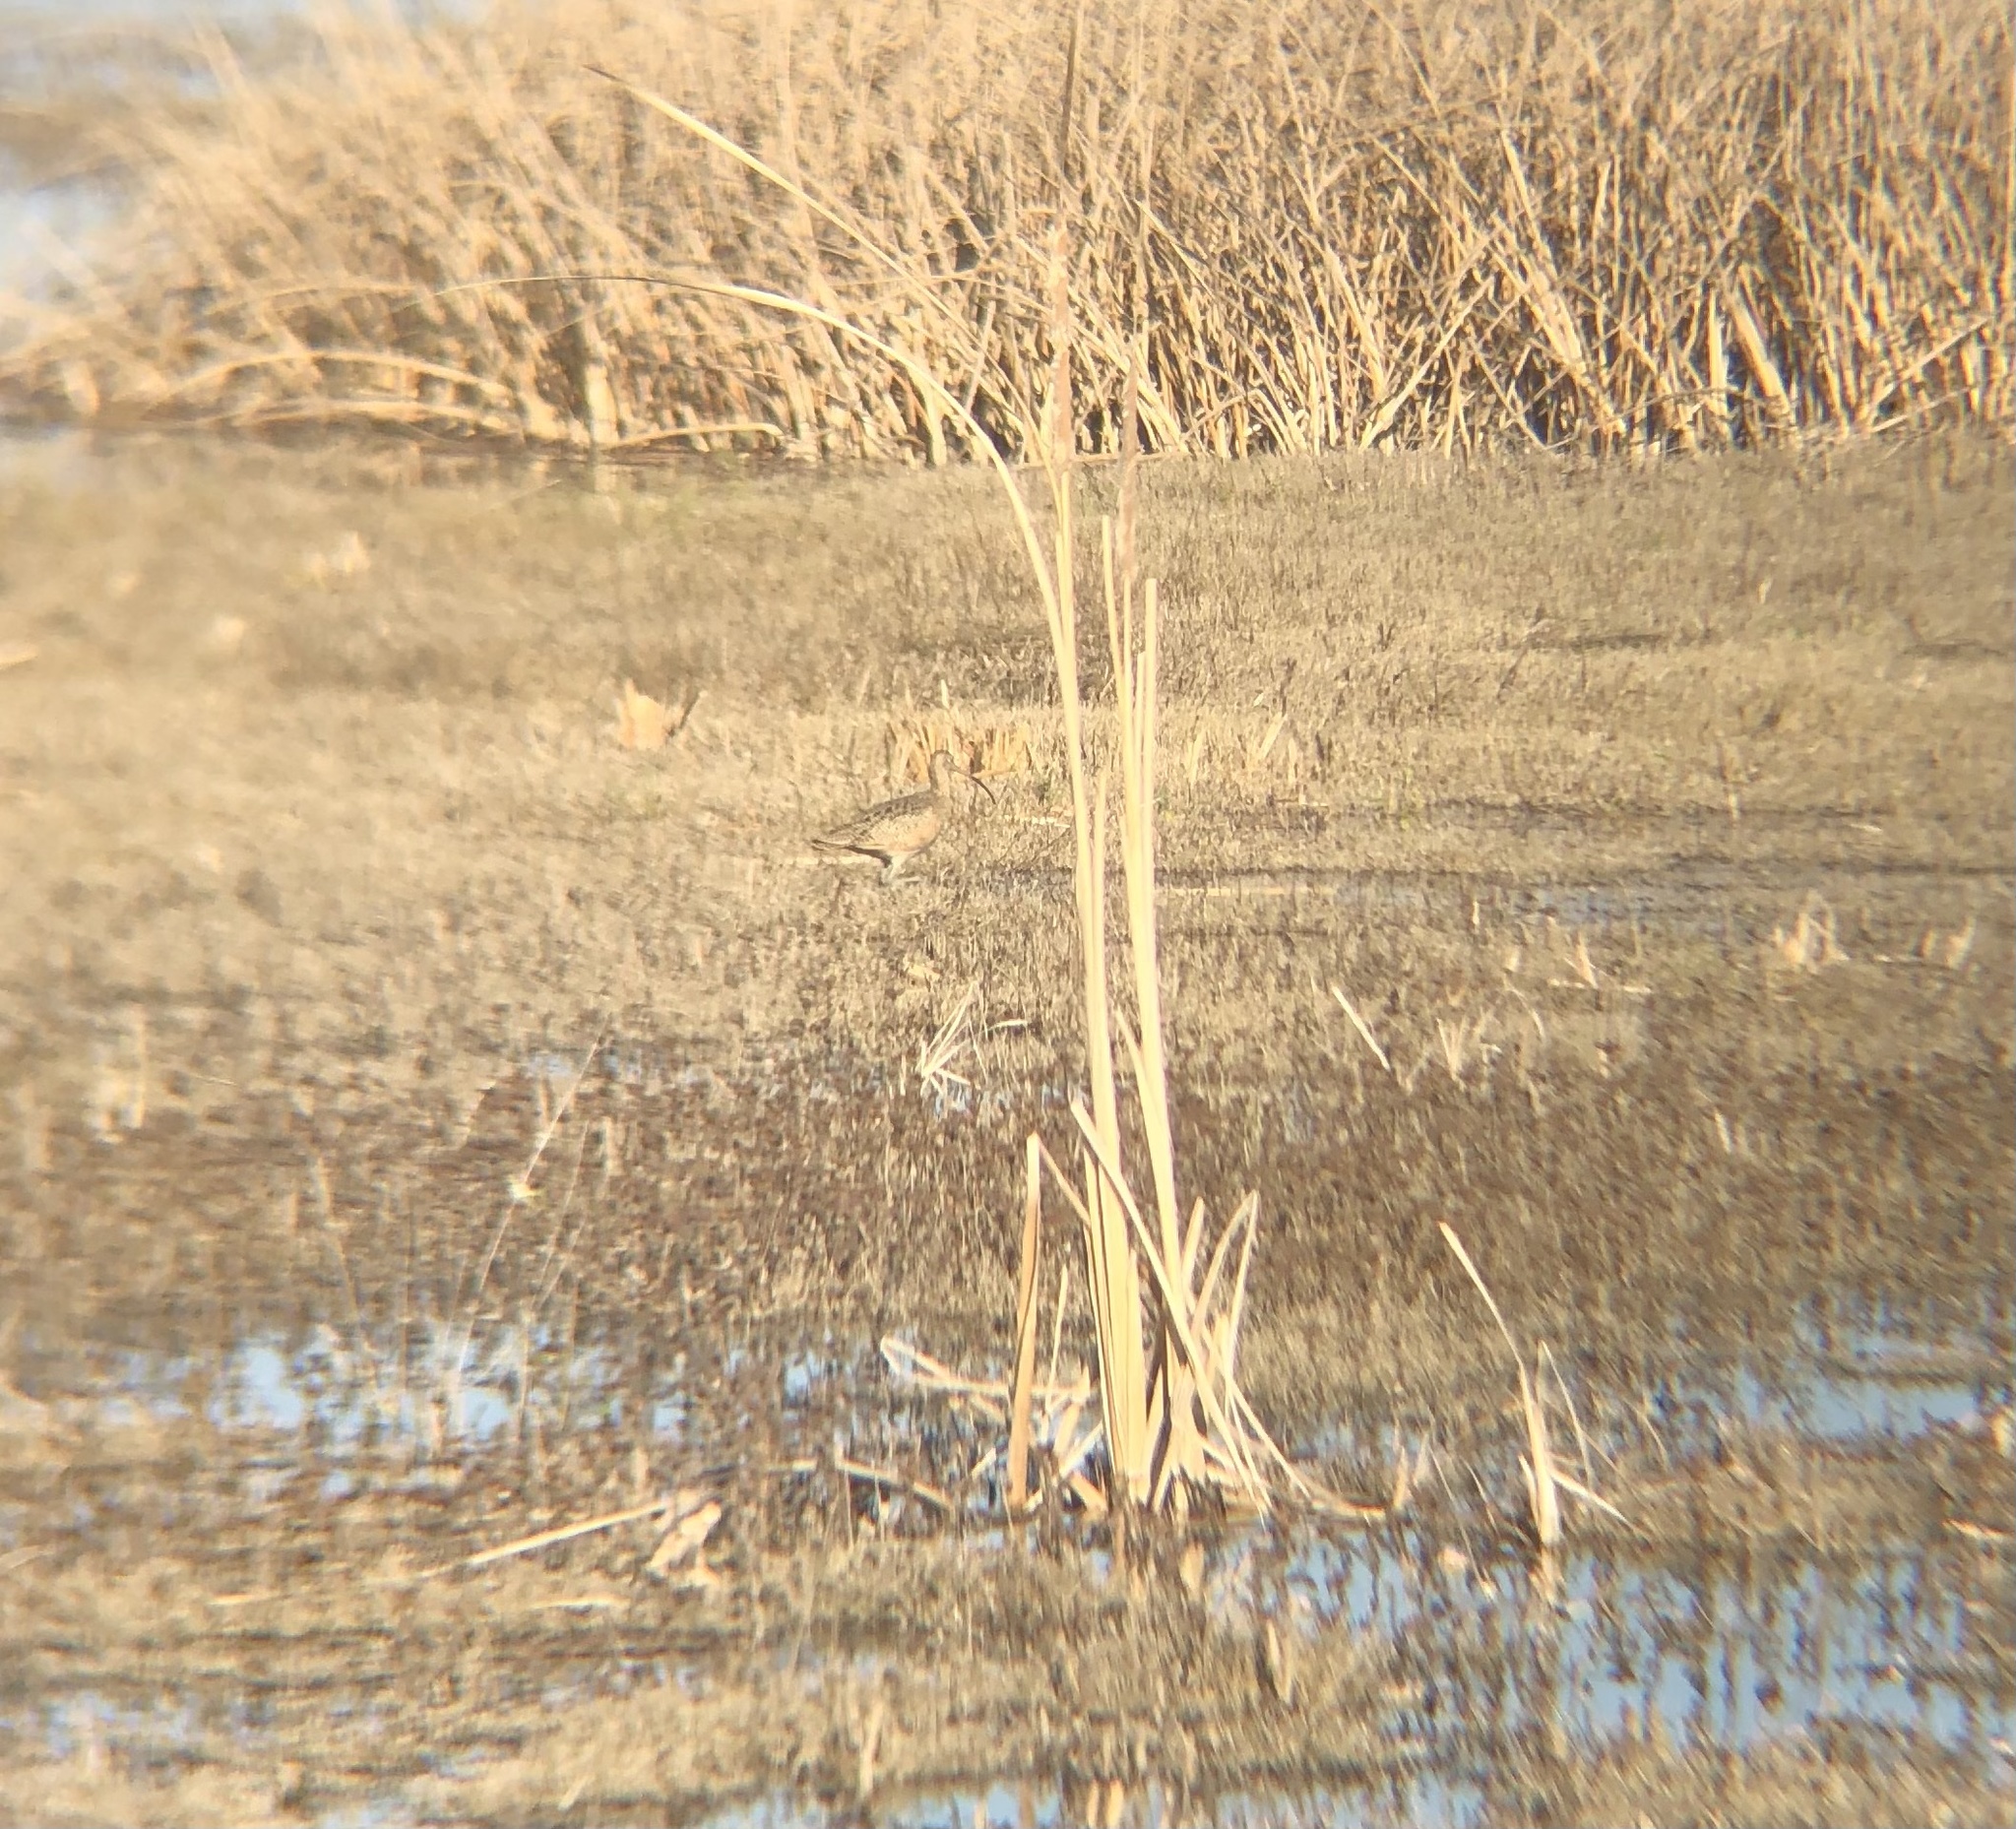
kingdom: Animalia
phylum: Chordata
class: Aves
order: Charadriiformes
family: Scolopacidae
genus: Numenius
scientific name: Numenius americanus
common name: Long-billed curlew
